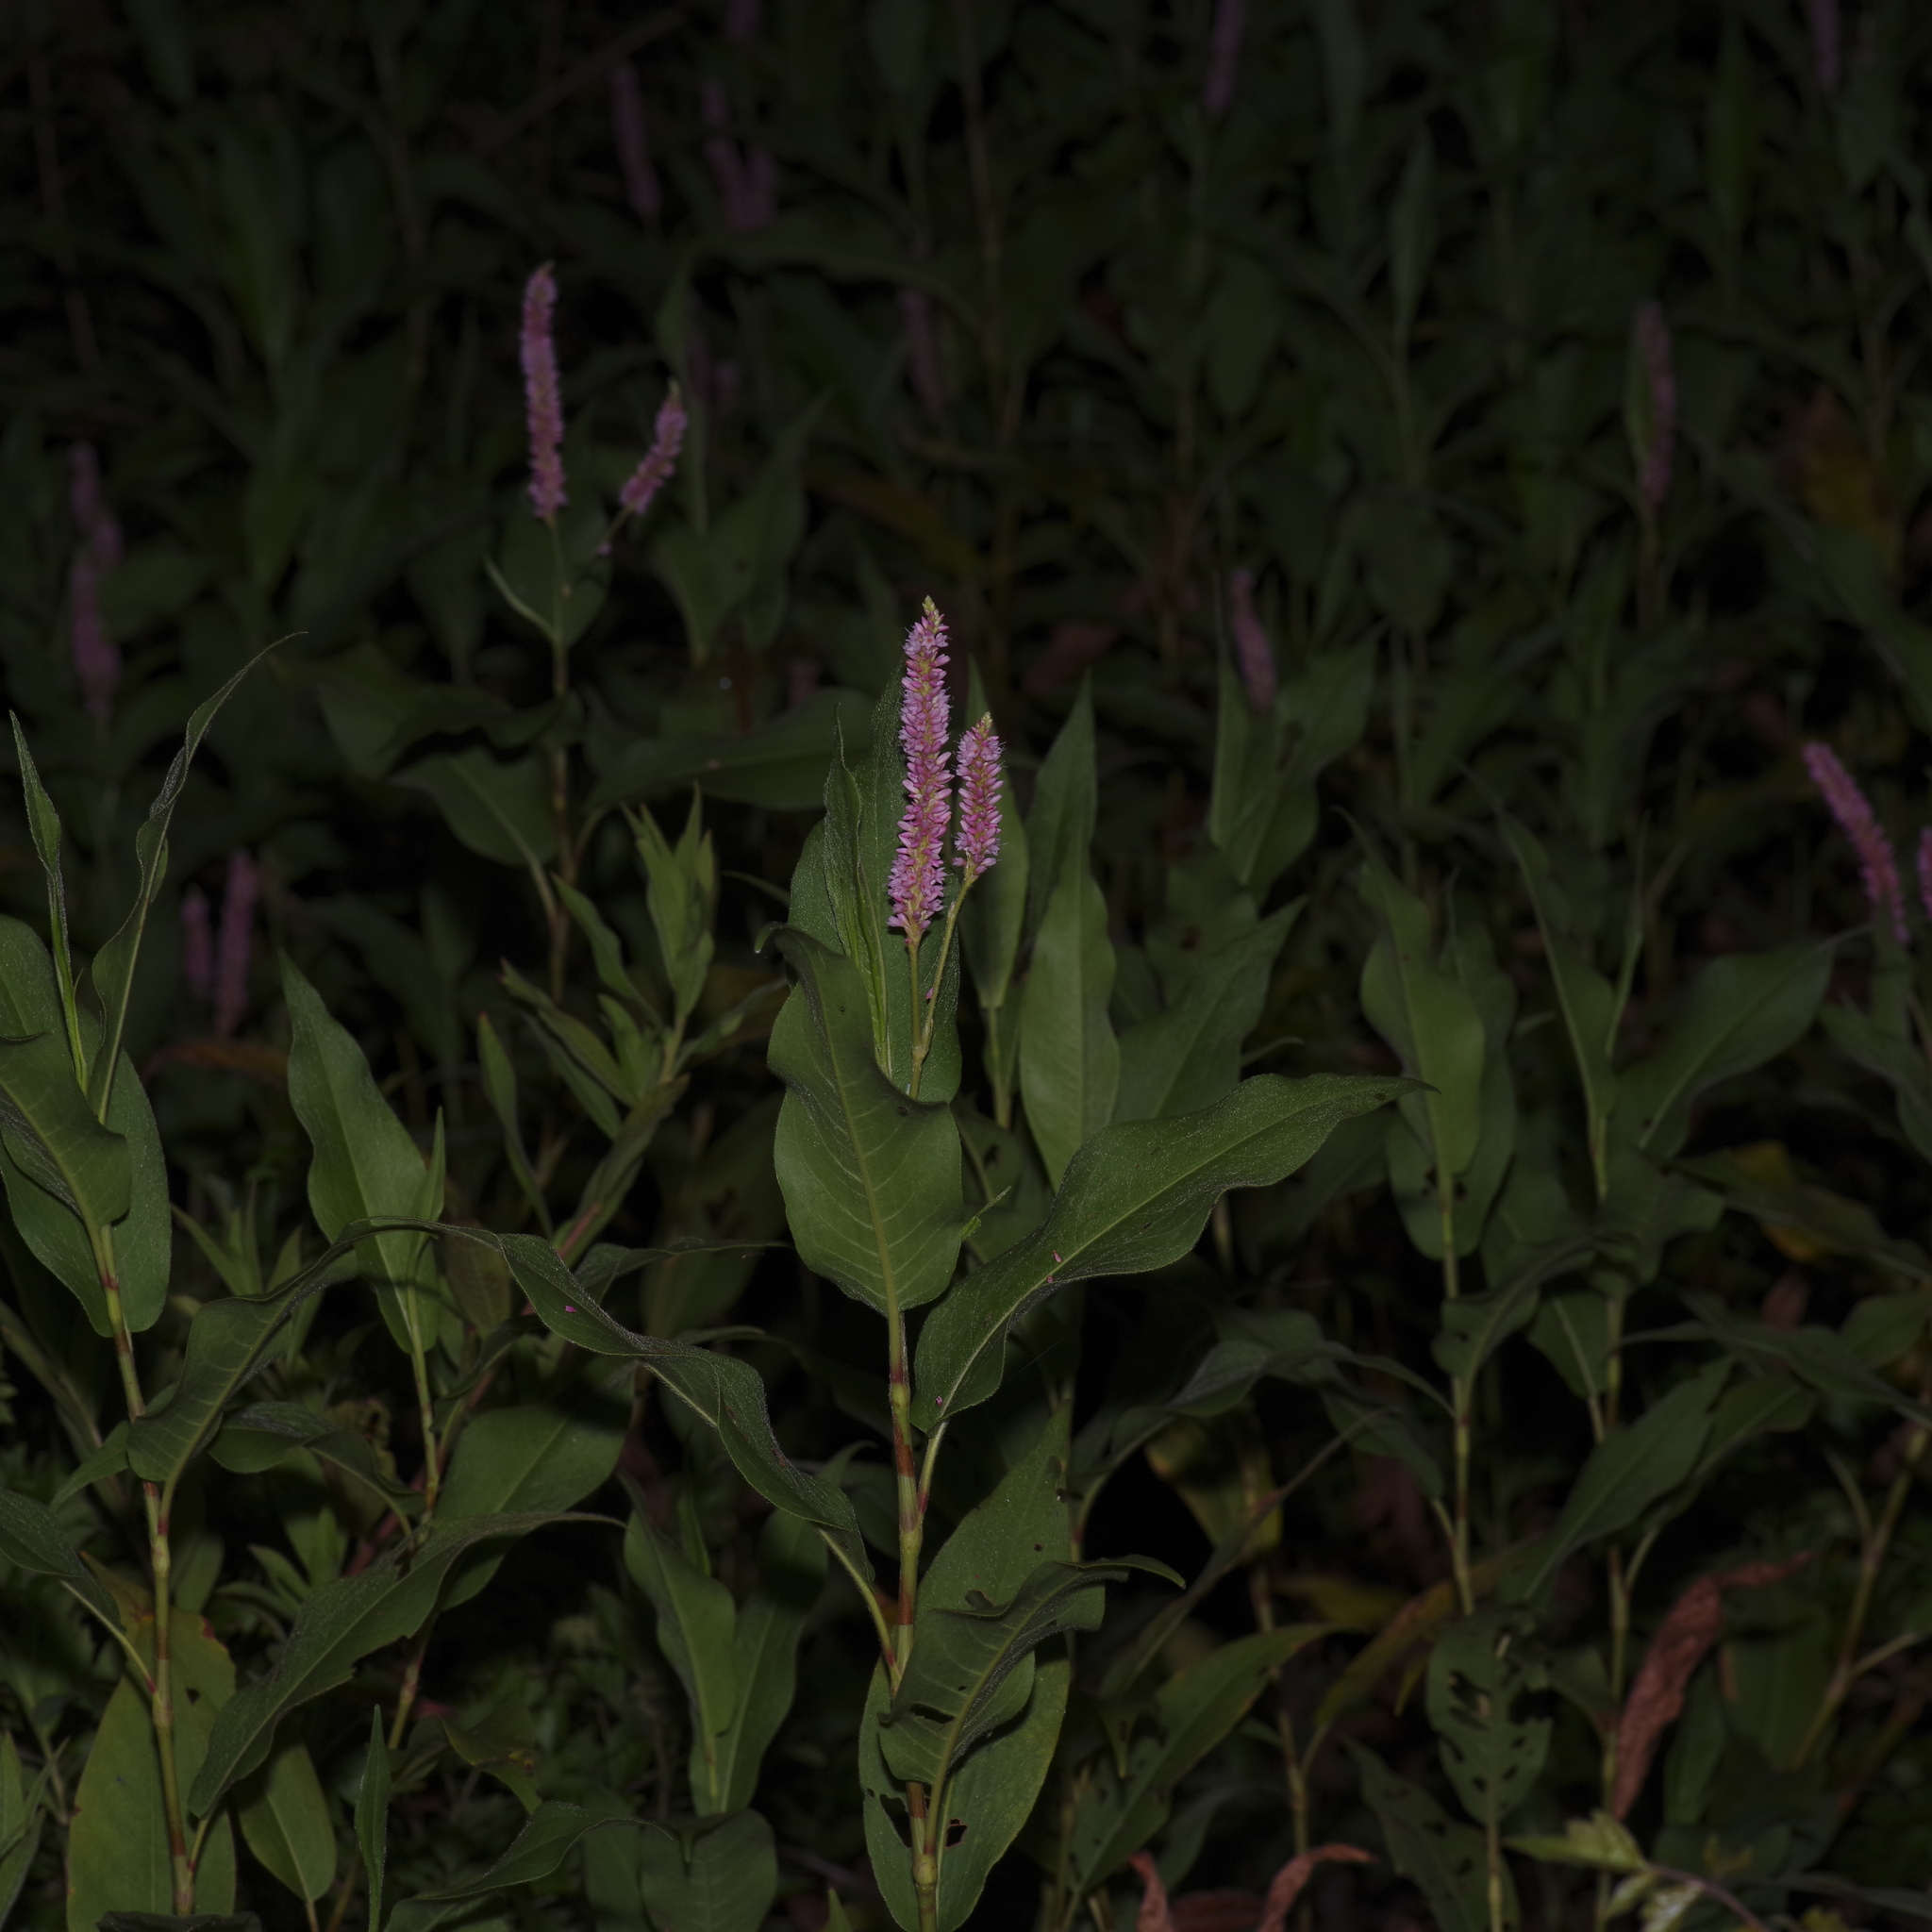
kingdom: Plantae
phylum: Tracheophyta
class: Magnoliopsida
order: Caryophyllales
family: Polygonaceae
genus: Persicaria
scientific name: Persicaria amphibia
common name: Amphibious bistort
